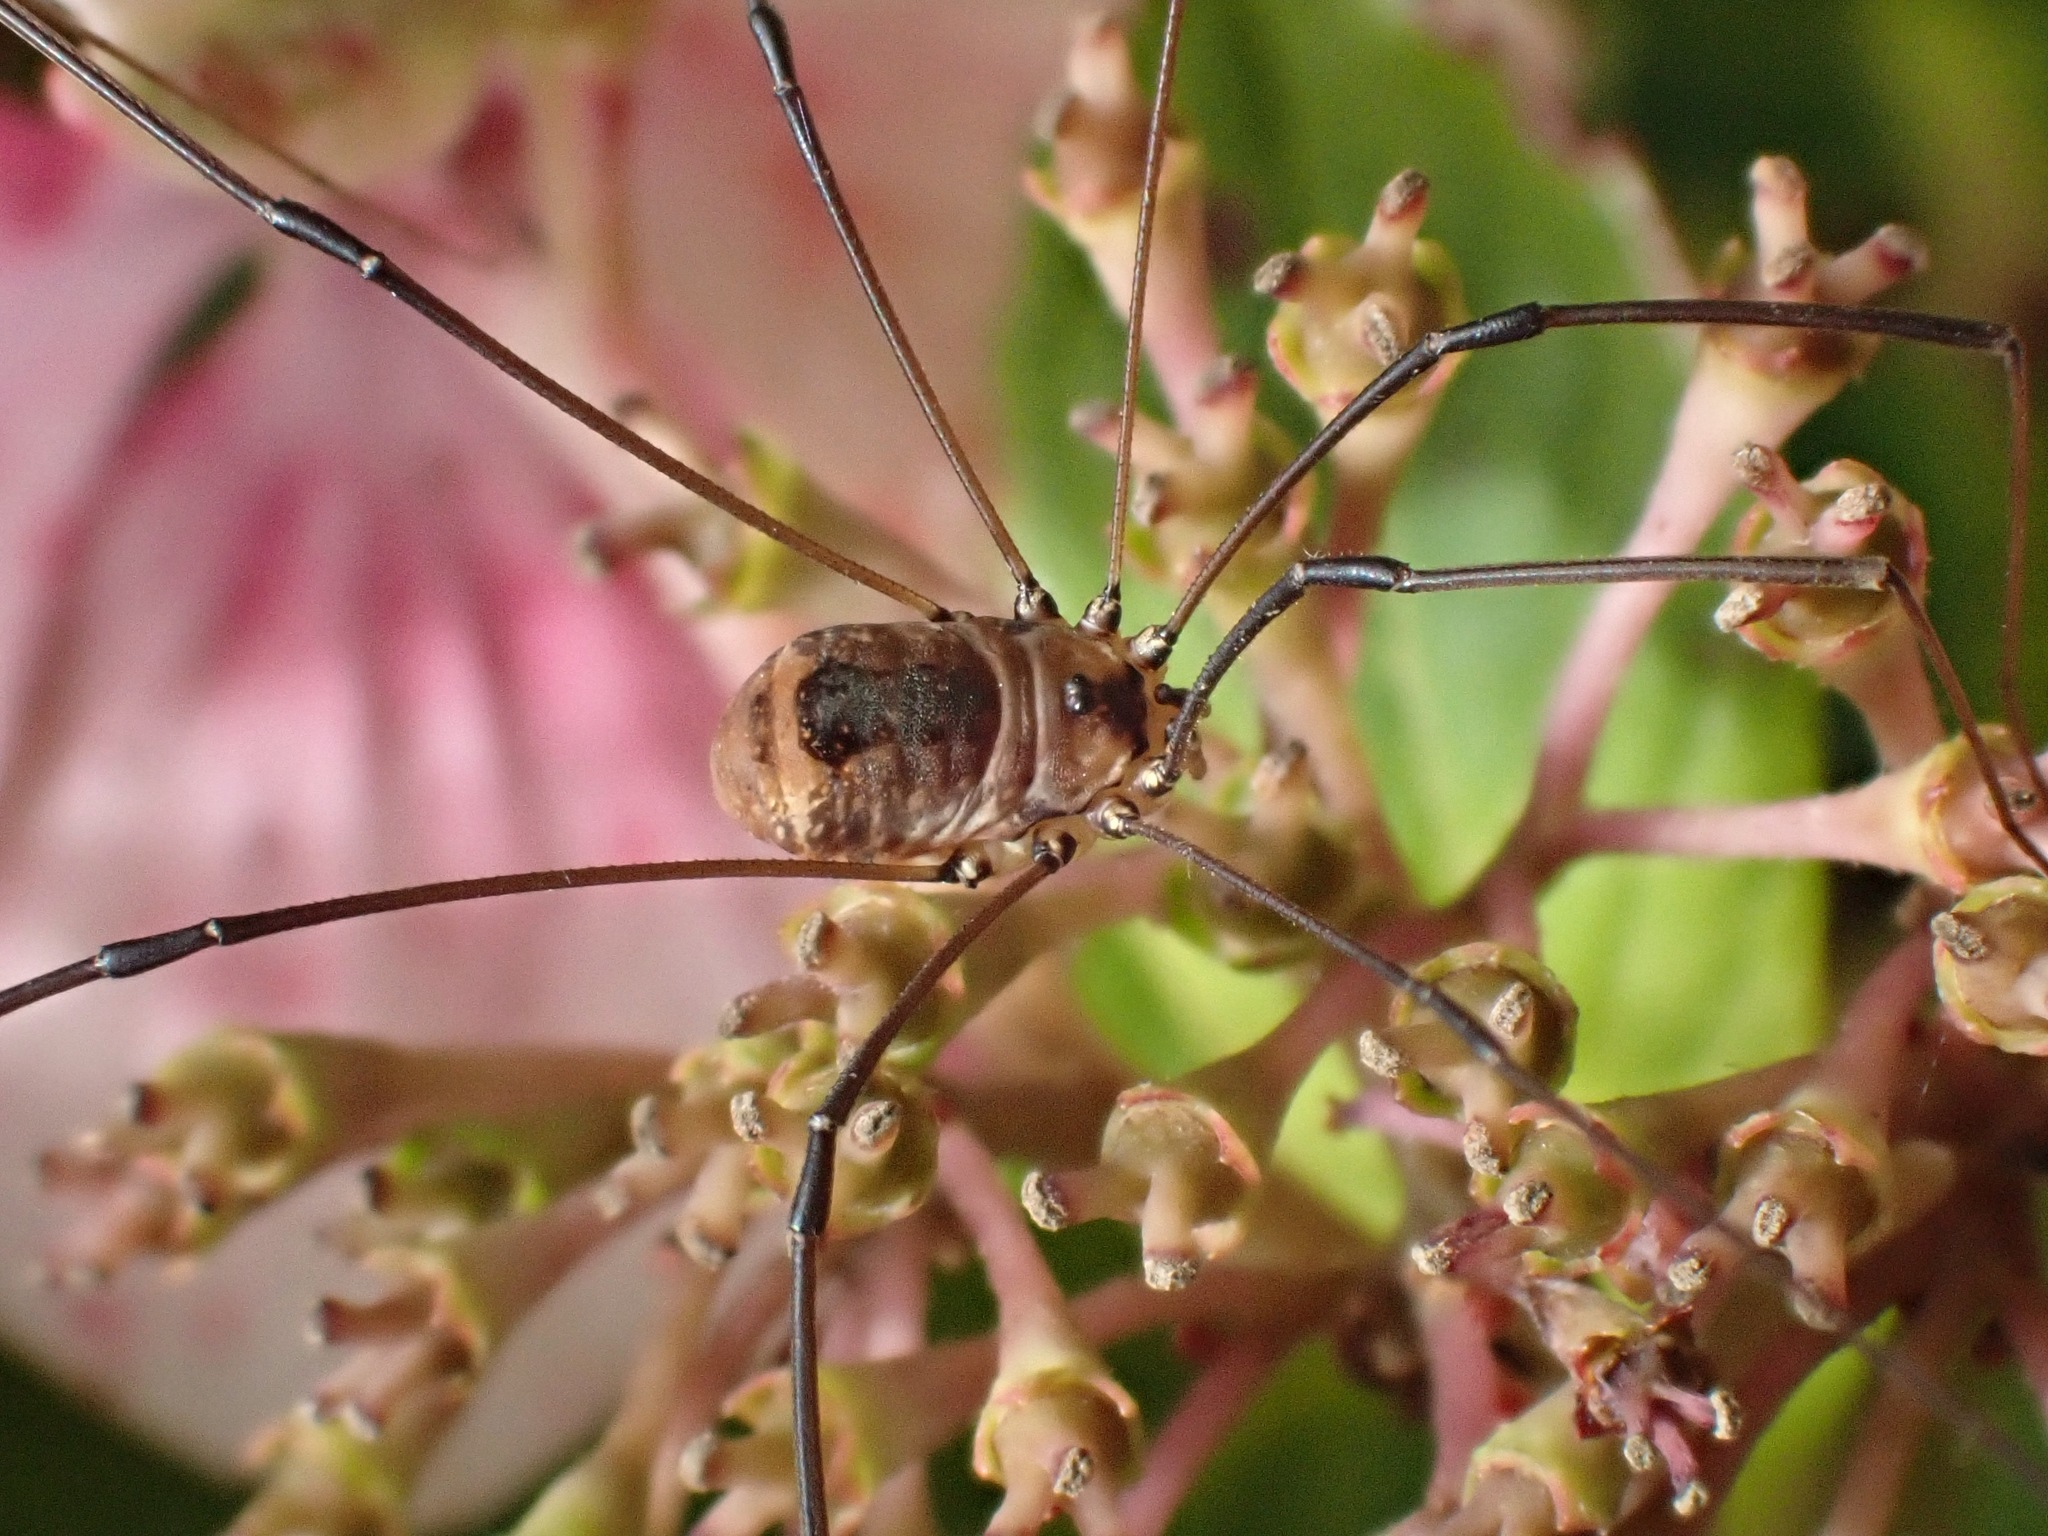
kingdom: Animalia
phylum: Arthropoda
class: Arachnida
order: Opiliones
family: Sclerosomatidae
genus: Leiobunum
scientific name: Leiobunum rotundum
